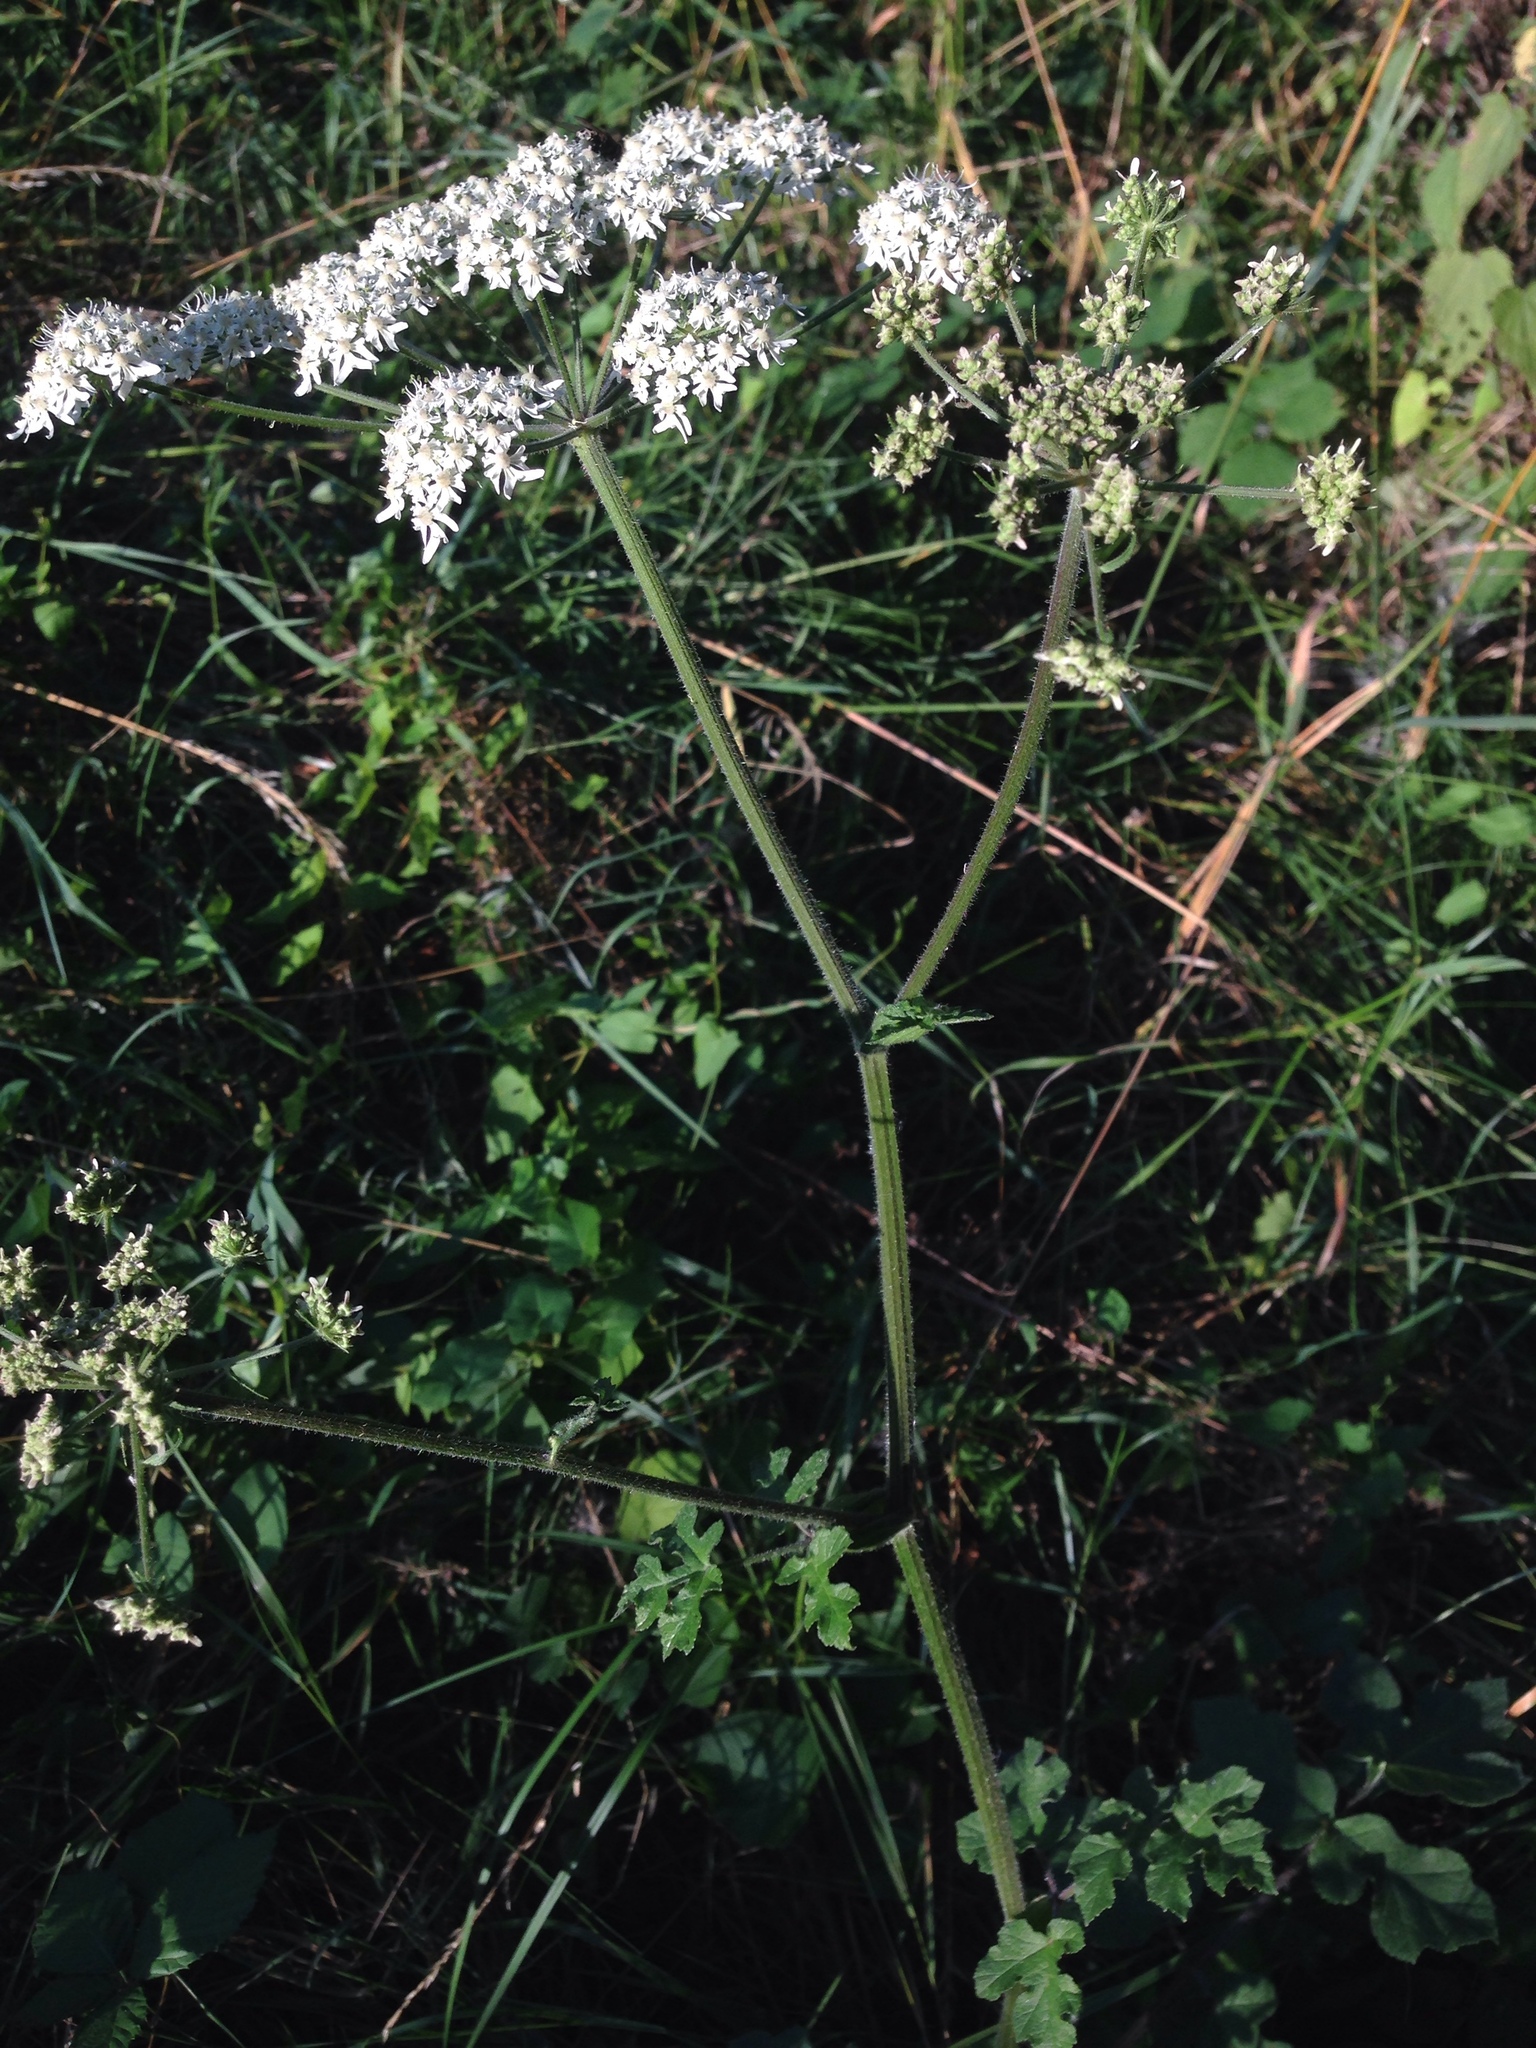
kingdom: Plantae
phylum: Tracheophyta
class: Magnoliopsida
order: Apiales
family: Apiaceae
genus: Heracleum
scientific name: Heracleum sphondylium
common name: Hogweed
